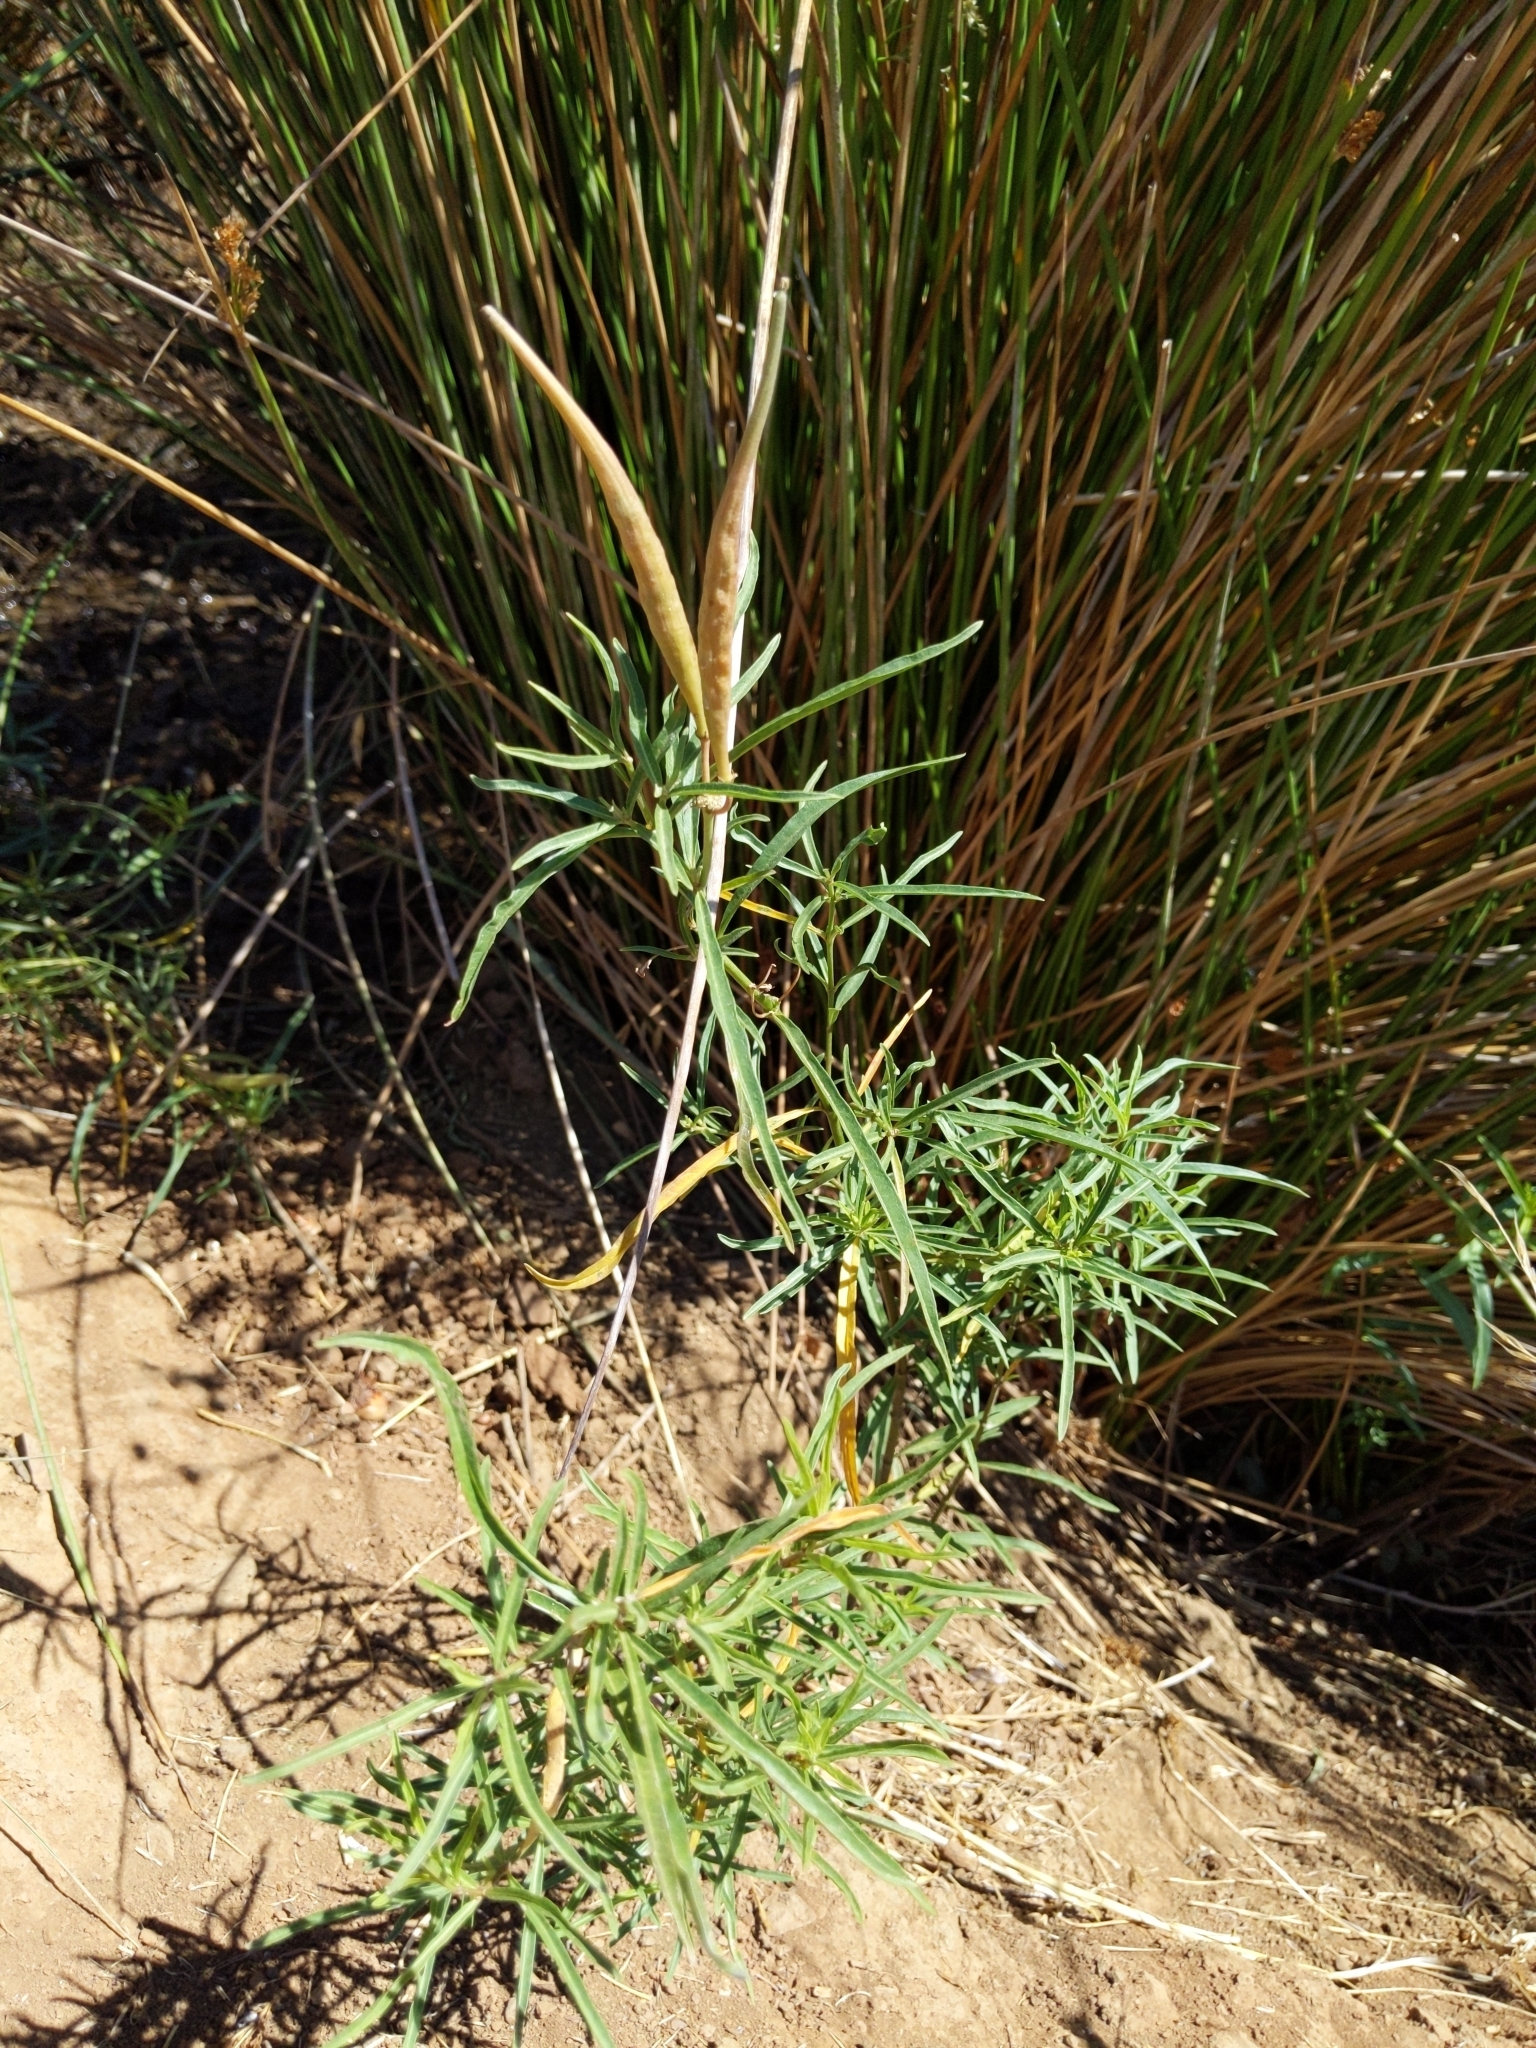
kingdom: Plantae
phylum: Tracheophyta
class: Magnoliopsida
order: Gentianales
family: Apocynaceae
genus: Asclepias
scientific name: Asclepias fascicularis
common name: Mexican milkweed
